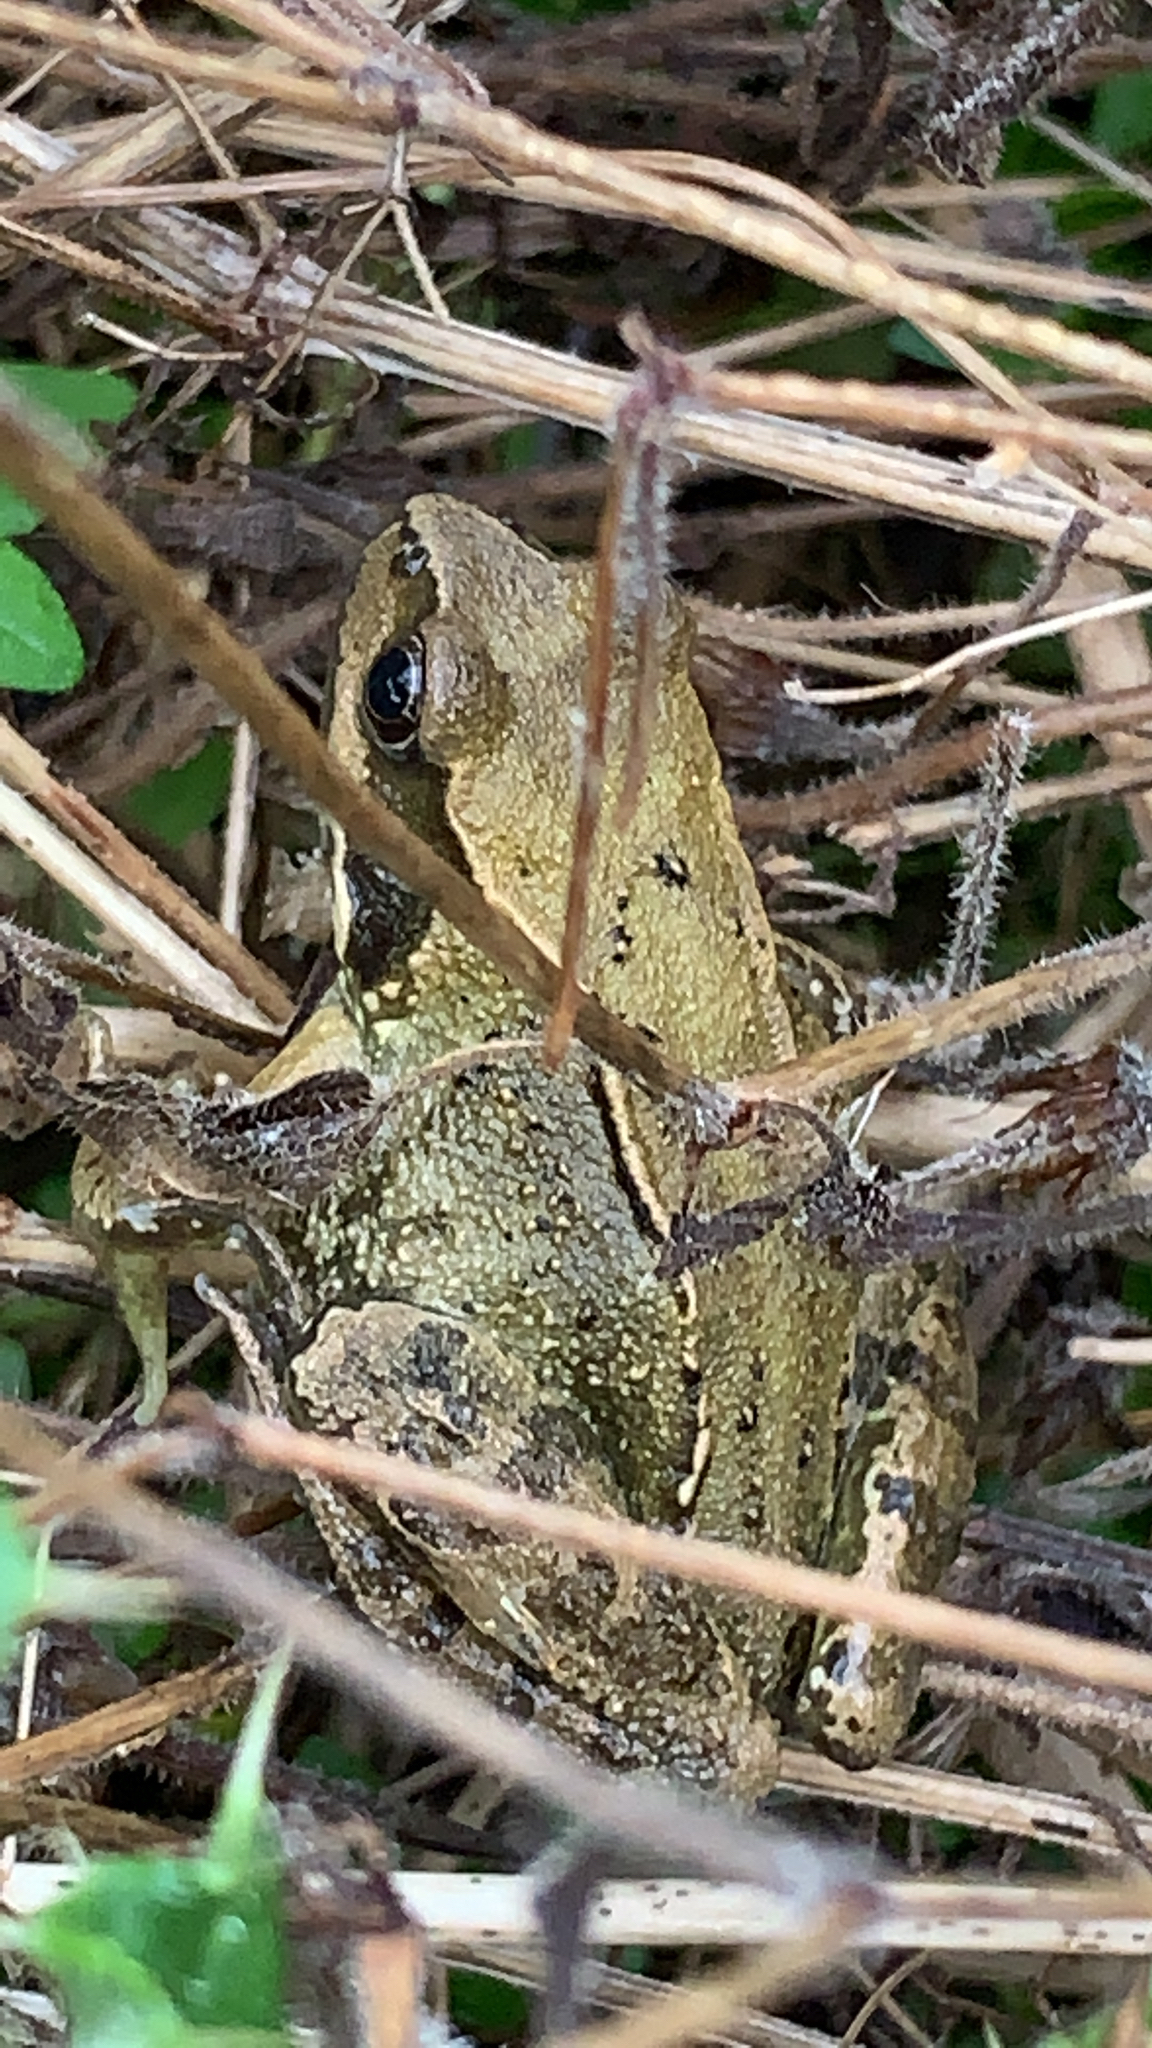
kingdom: Animalia
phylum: Chordata
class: Amphibia
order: Anura
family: Ranidae
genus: Rana
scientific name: Rana temporaria
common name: Common frog
